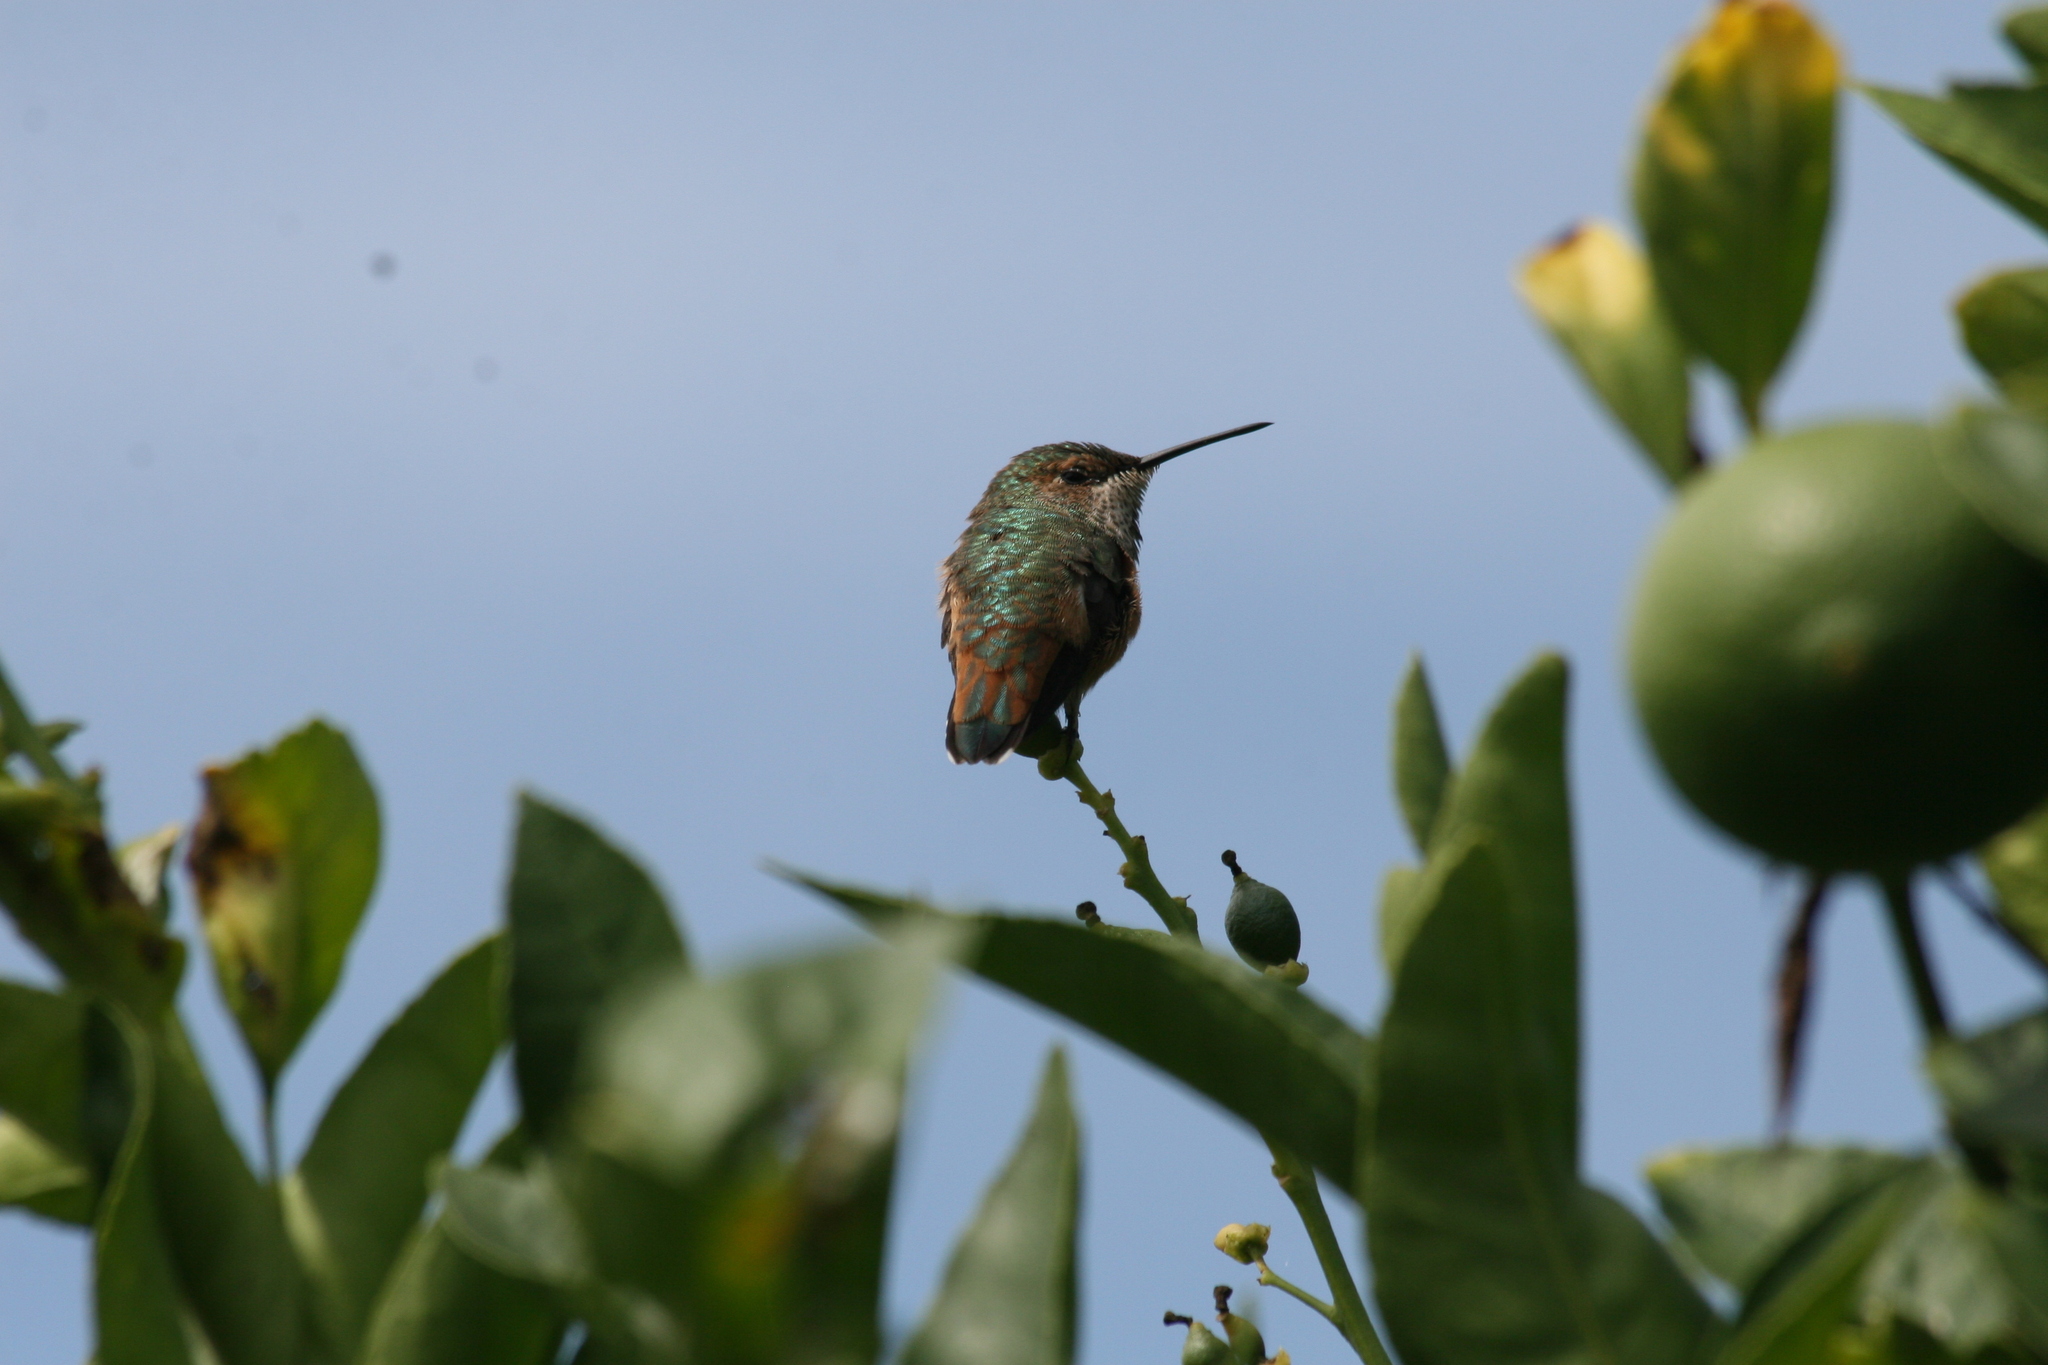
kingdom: Animalia
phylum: Chordata
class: Aves
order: Apodiformes
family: Trochilidae
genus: Selasphorus
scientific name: Selasphorus sasin
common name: Allen's hummingbird
